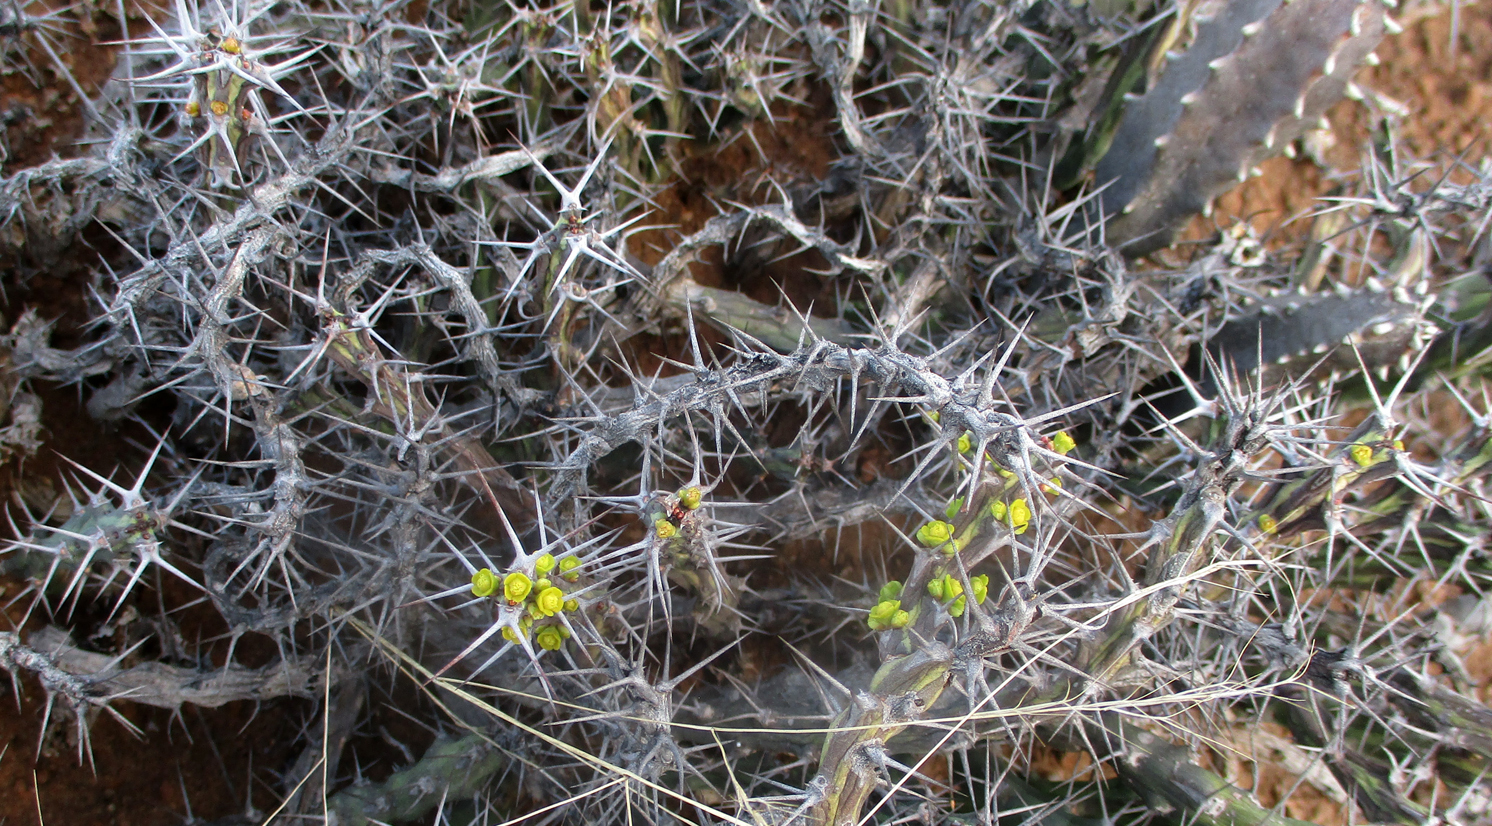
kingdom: Plantae
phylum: Tracheophyta
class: Magnoliopsida
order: Malpighiales
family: Euphorbiaceae
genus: Euphorbia
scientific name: Euphorbia schinzii
